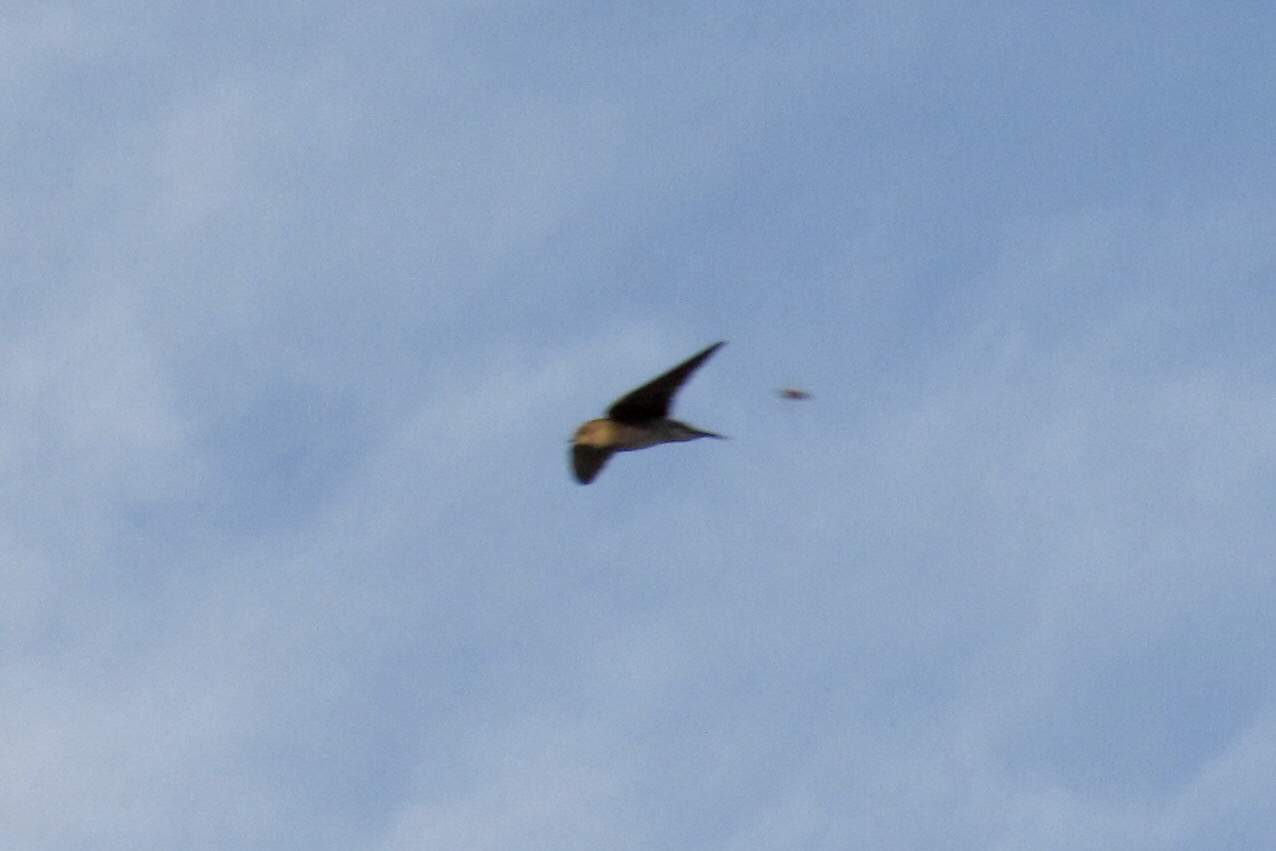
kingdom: Animalia
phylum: Chordata
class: Aves
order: Apodiformes
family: Apodidae
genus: Chaetura
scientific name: Chaetura vauxi
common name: Vaux's swift
